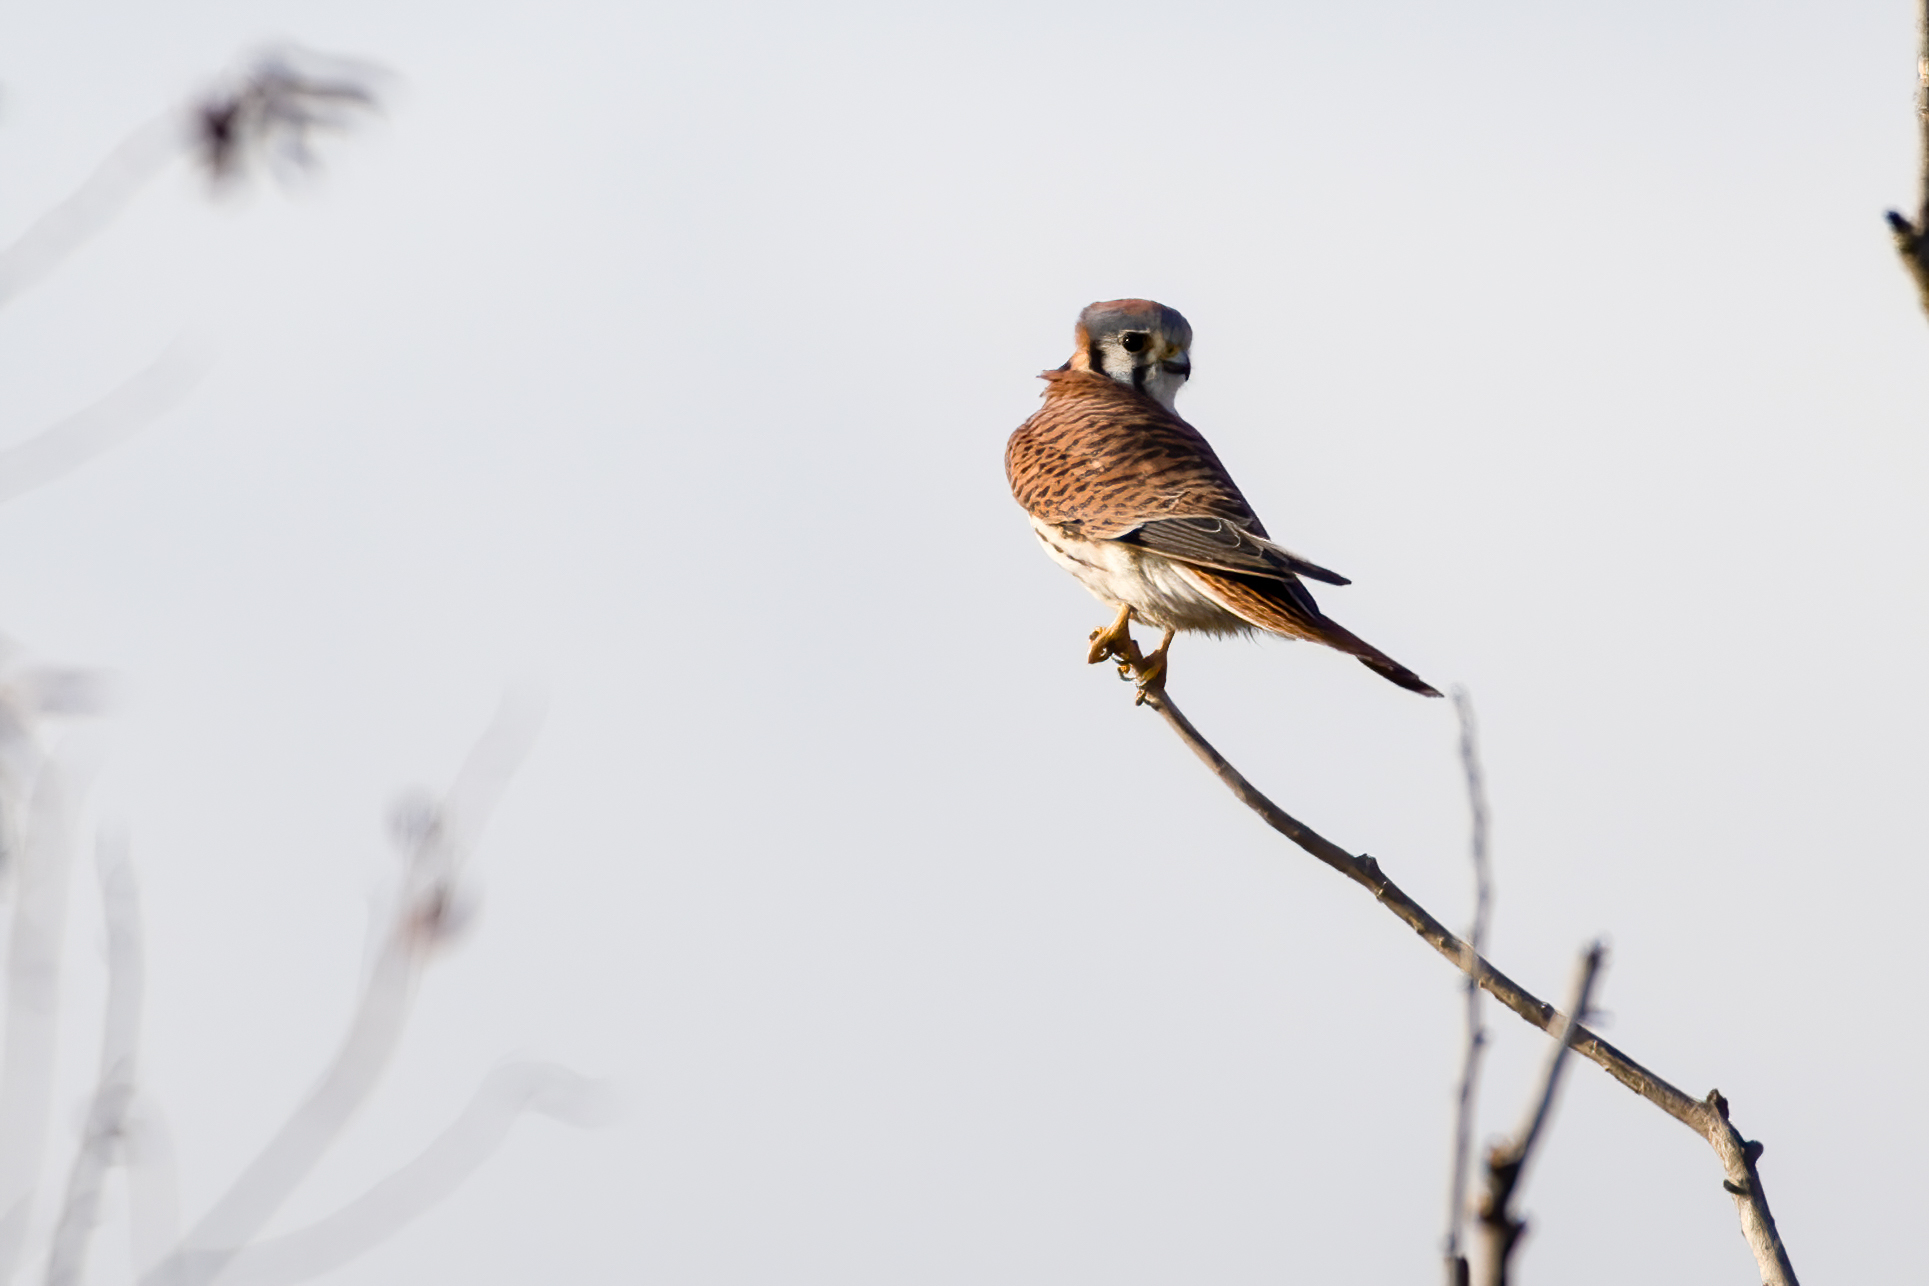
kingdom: Animalia
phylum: Chordata
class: Aves
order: Falconiformes
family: Falconidae
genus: Falco
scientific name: Falco sparverius
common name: American kestrel
